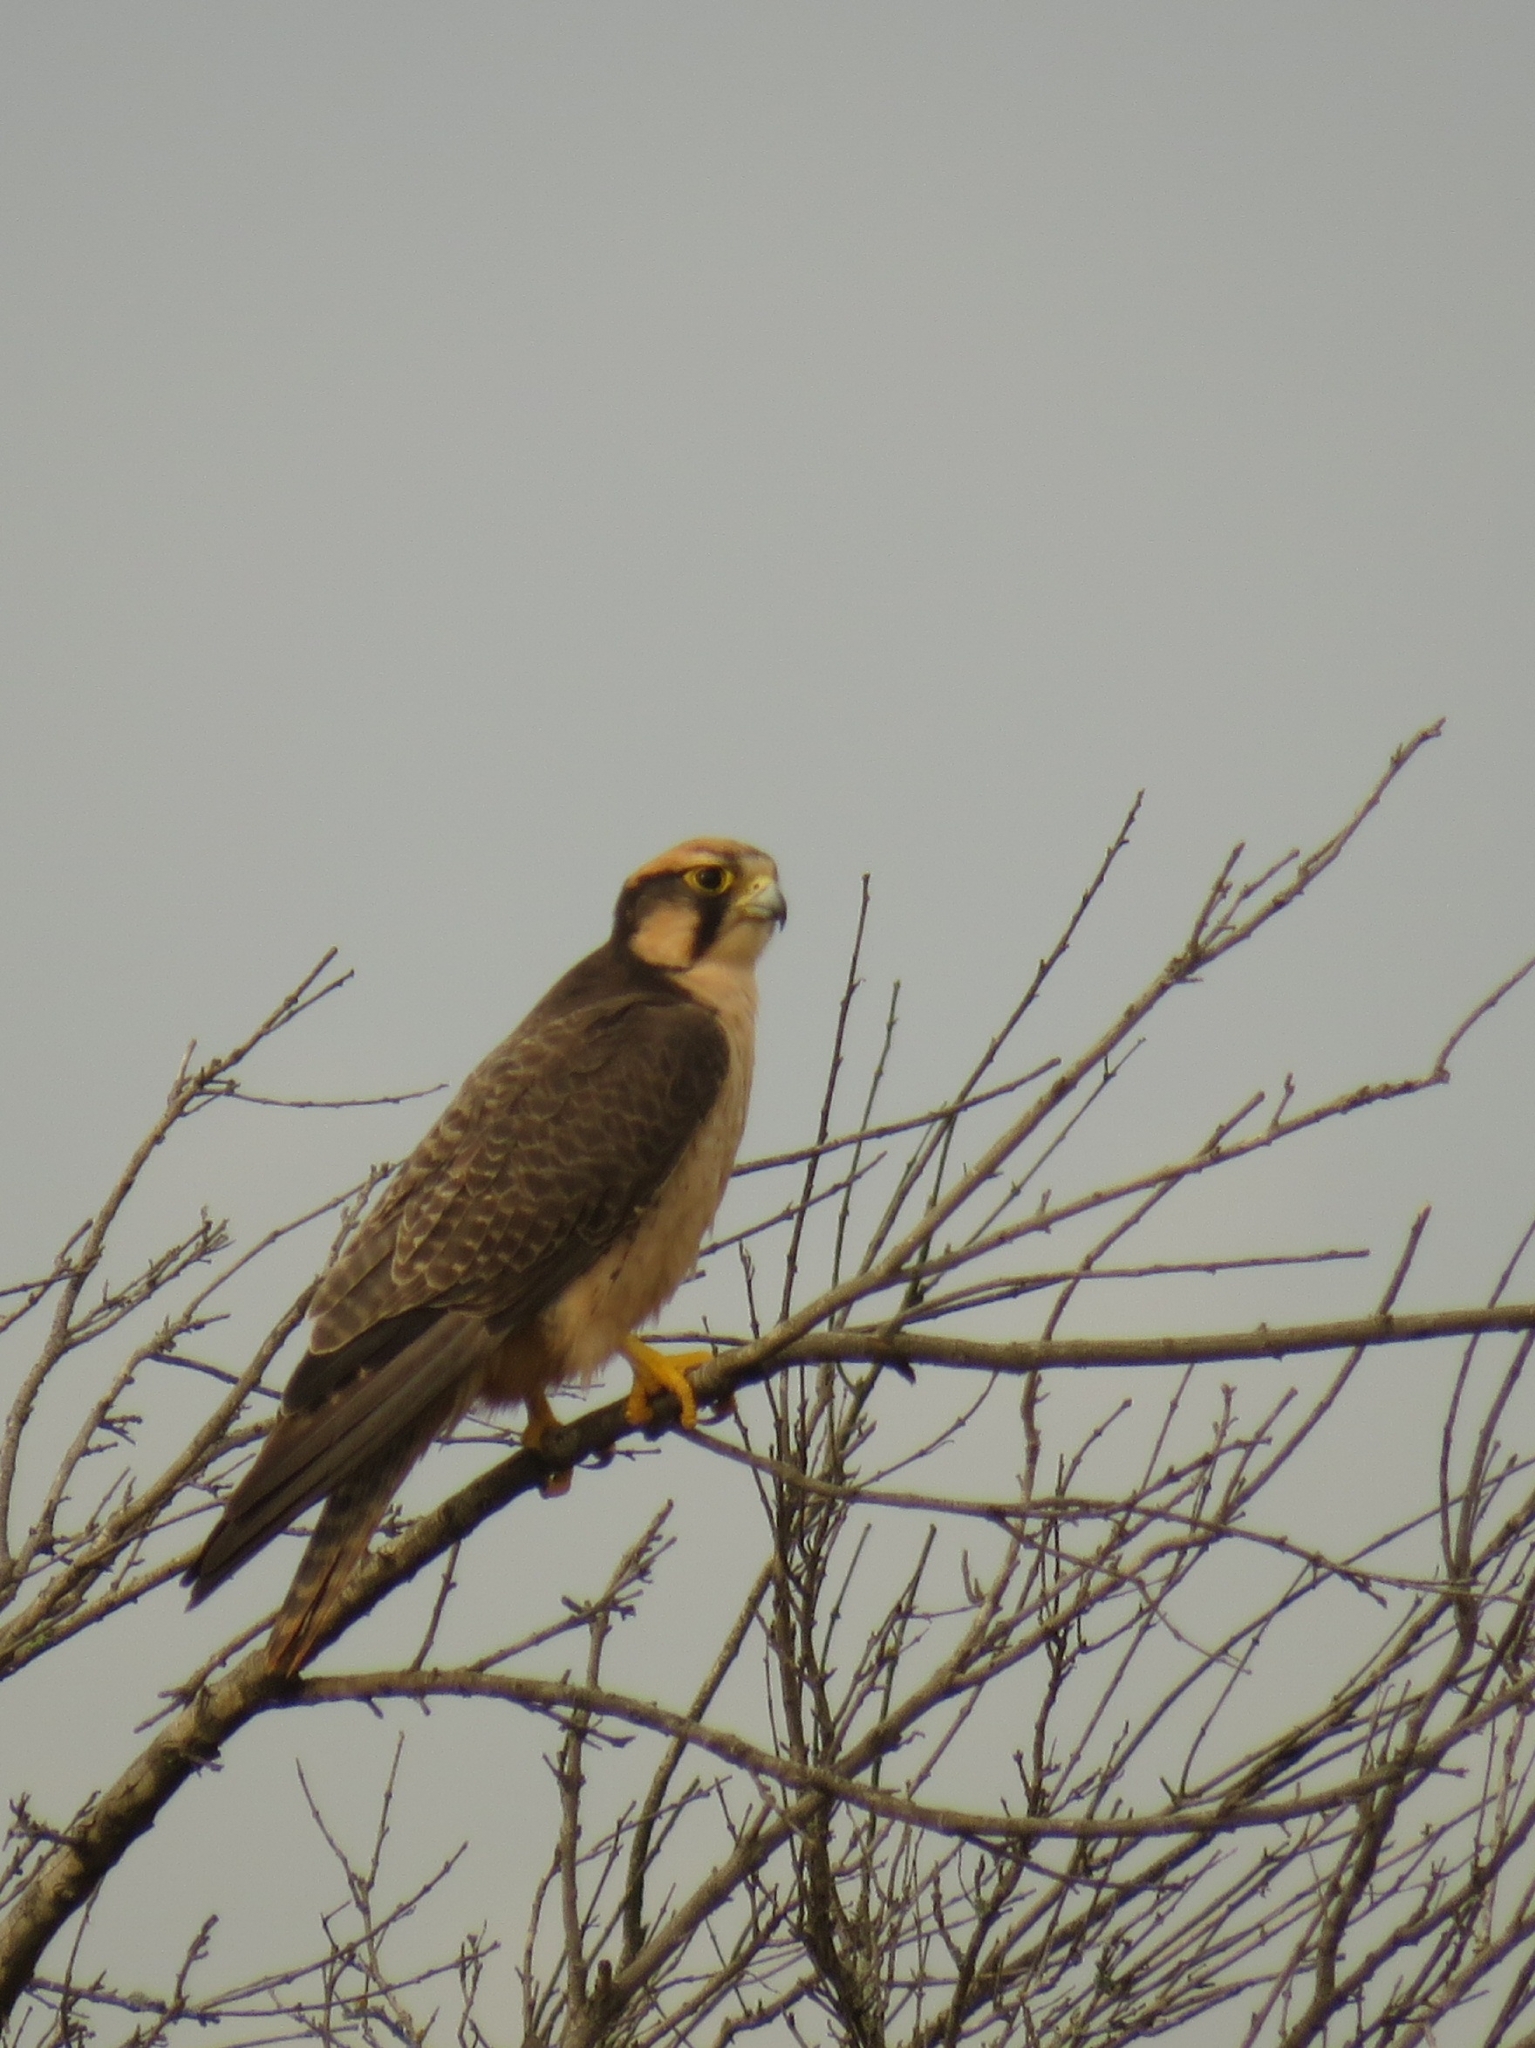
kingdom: Animalia
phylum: Chordata
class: Aves
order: Falconiformes
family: Falconidae
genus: Falco
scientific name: Falco biarmicus
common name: Lanner falcon
